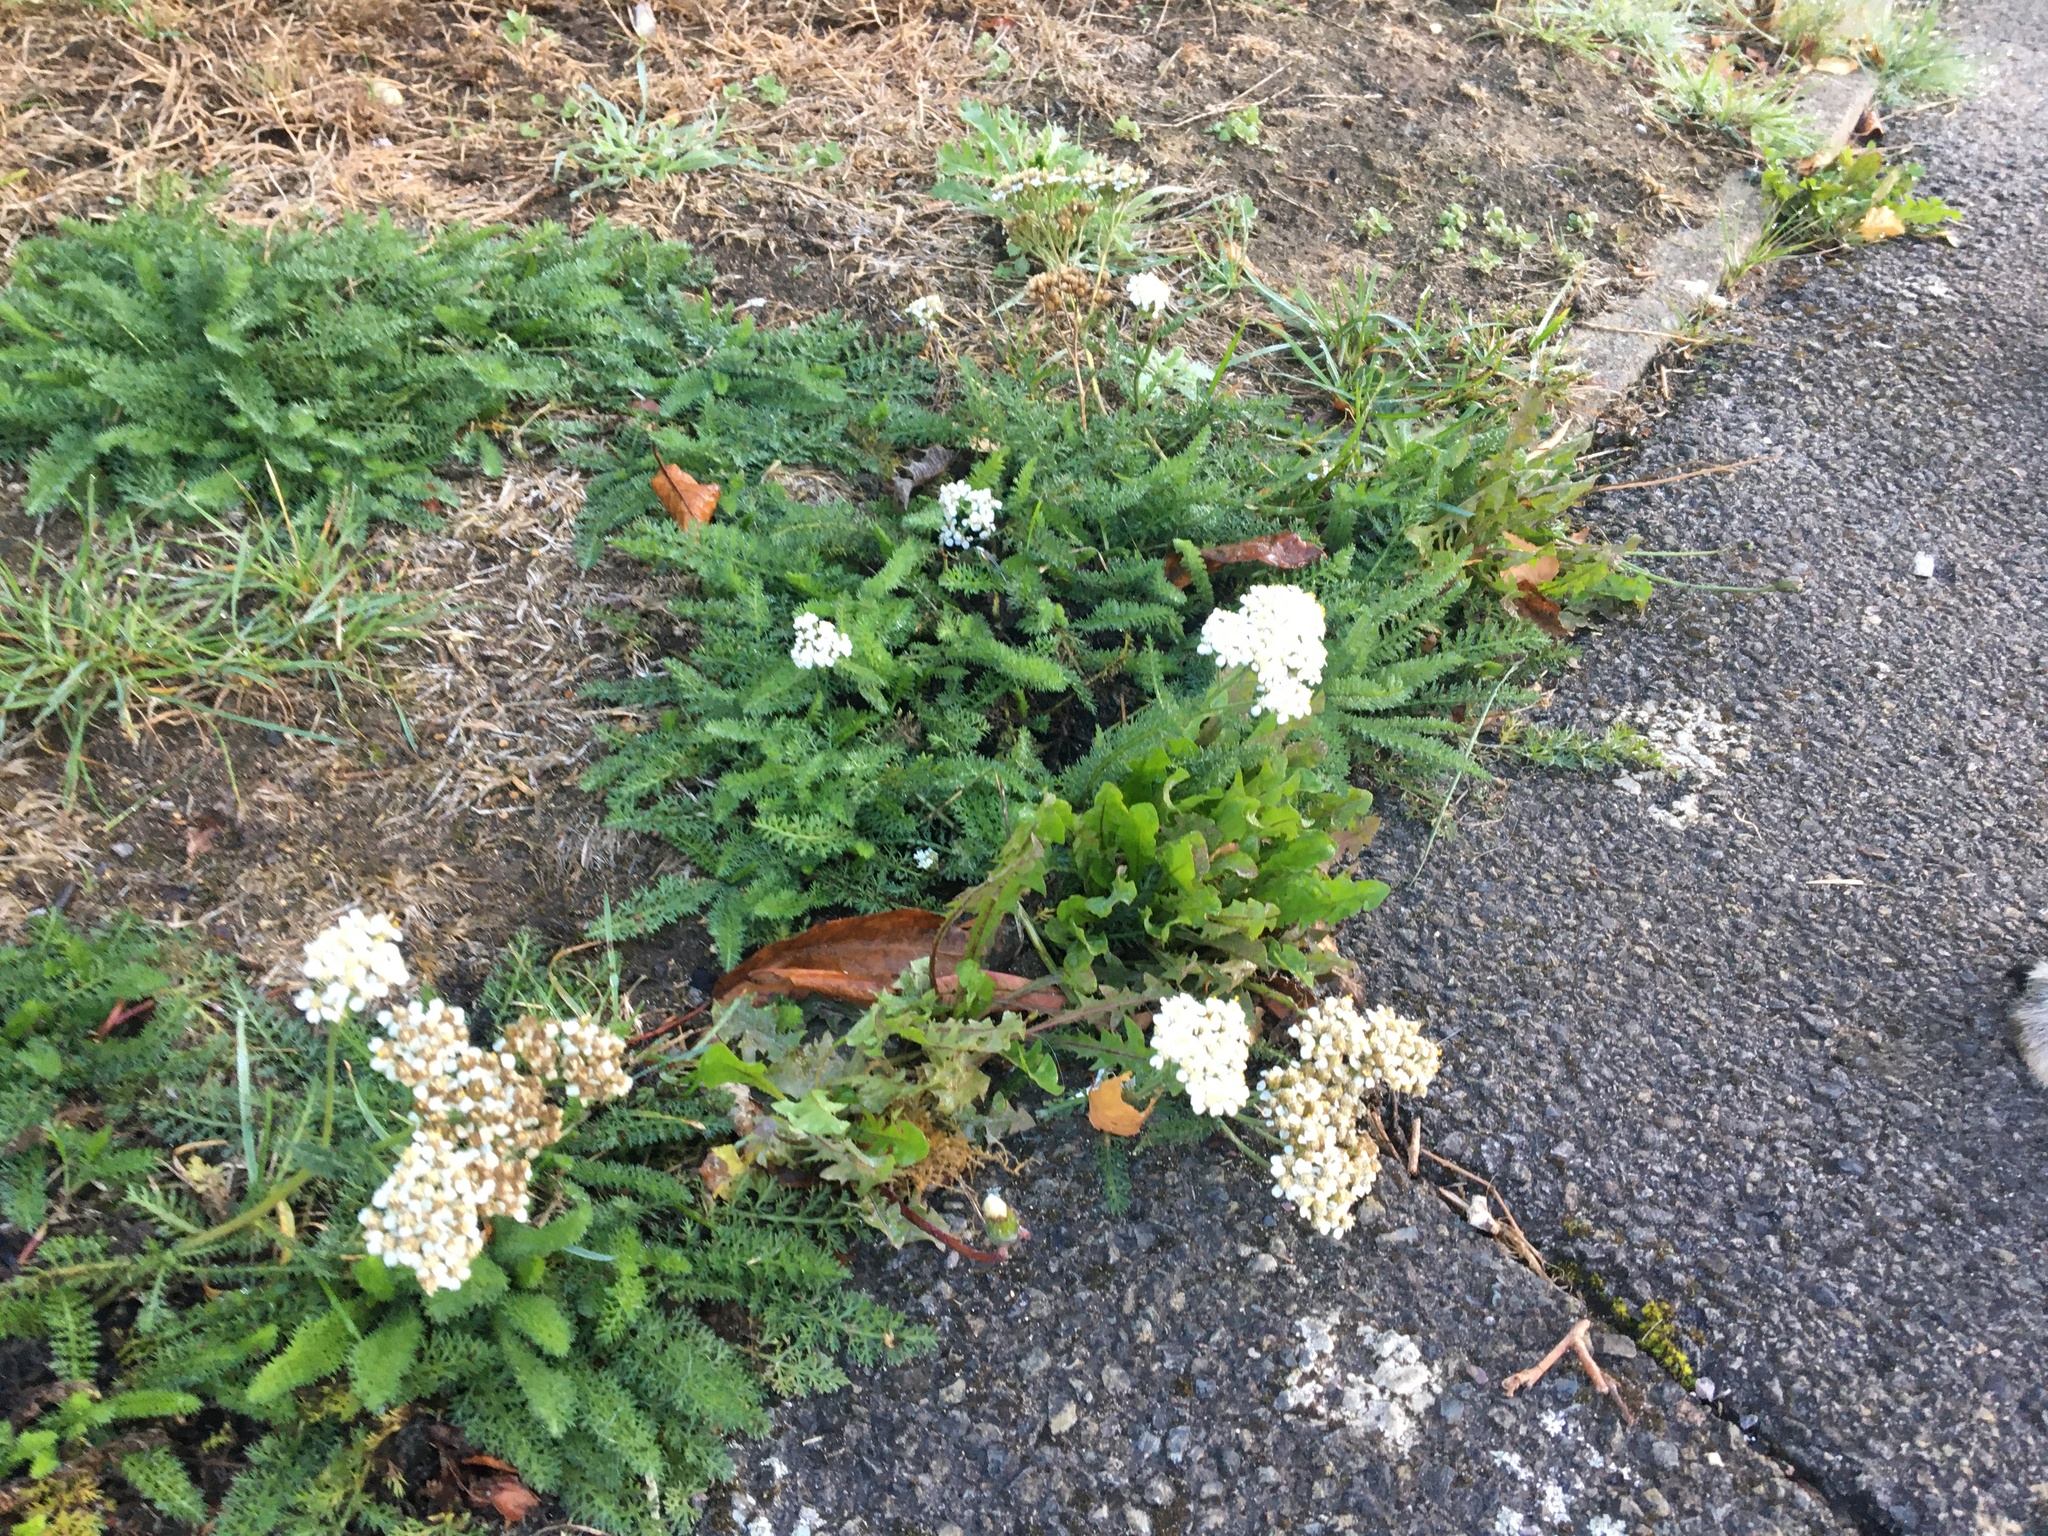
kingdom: Plantae
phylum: Tracheophyta
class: Magnoliopsida
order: Asterales
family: Asteraceae
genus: Achillea
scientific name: Achillea millefolium
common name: Yarrow
